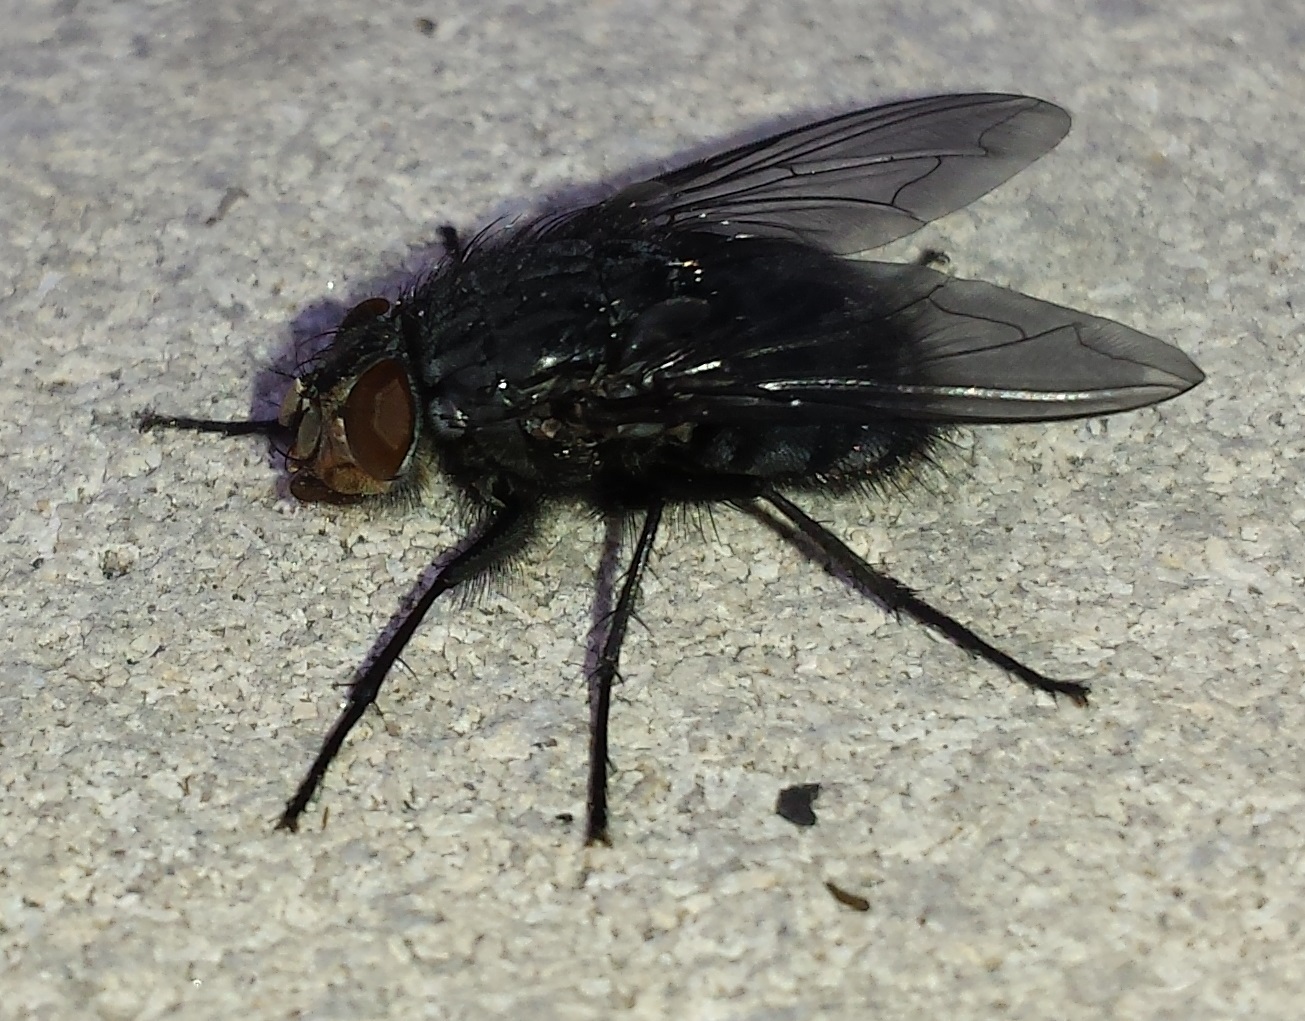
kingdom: Animalia
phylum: Arthropoda
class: Insecta
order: Diptera
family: Calliphoridae
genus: Calliphora
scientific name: Calliphora vicina
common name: Common blow flie
